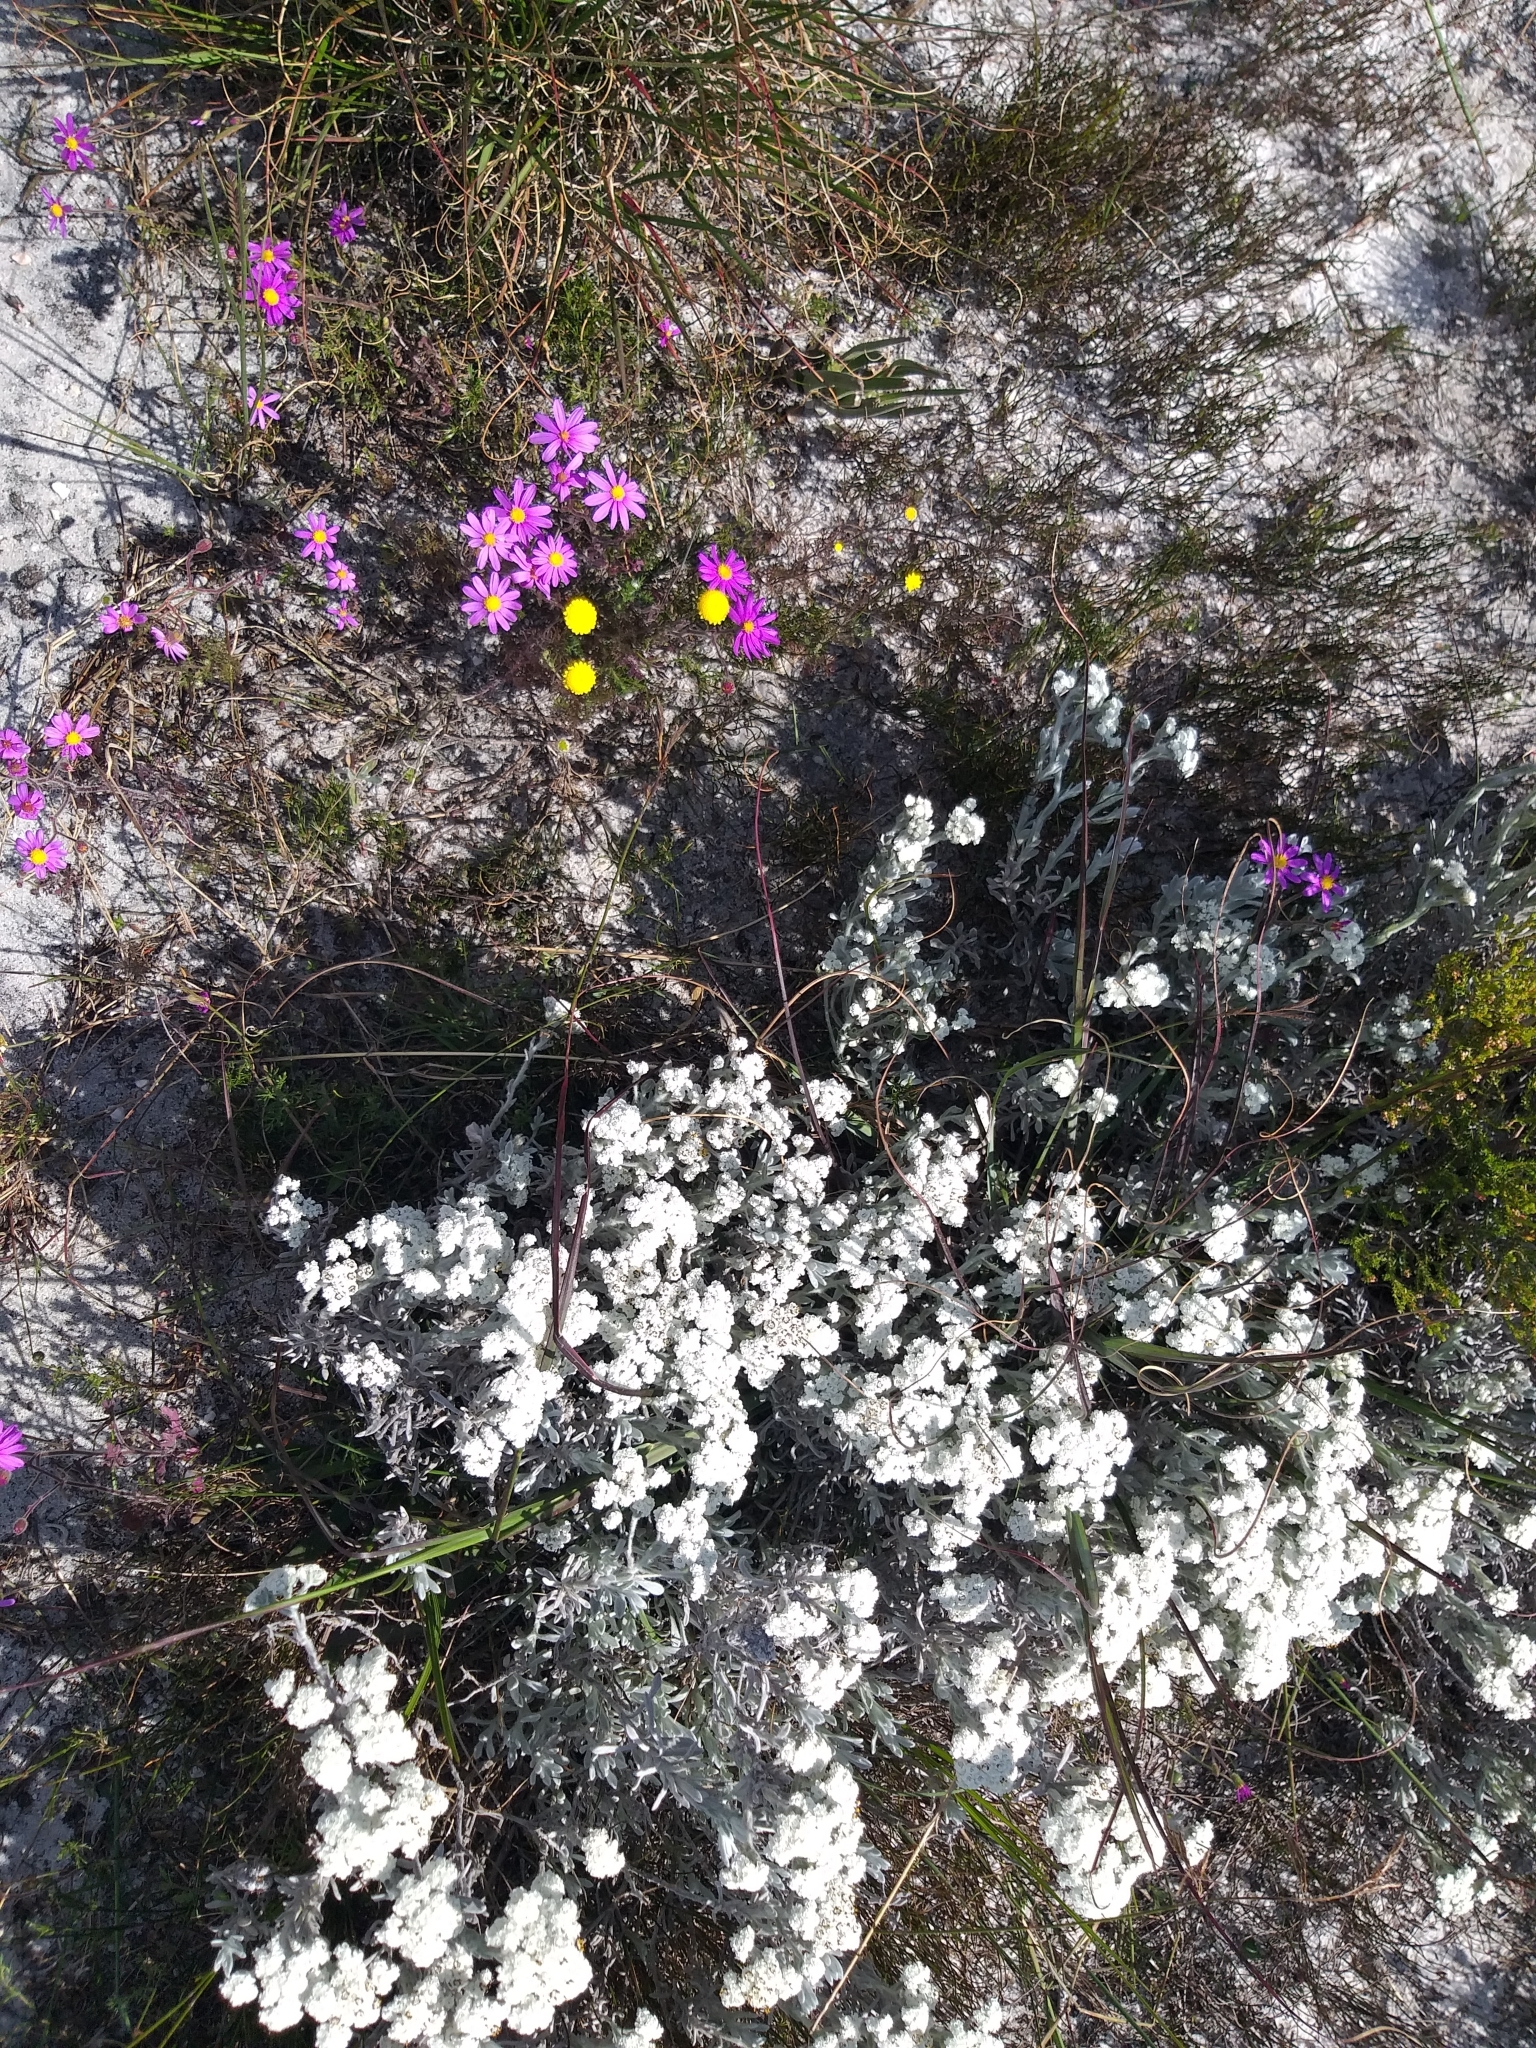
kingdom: Plantae
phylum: Tracheophyta
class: Magnoliopsida
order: Asterales
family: Asteraceae
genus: Petalacte
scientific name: Petalacte coronata
